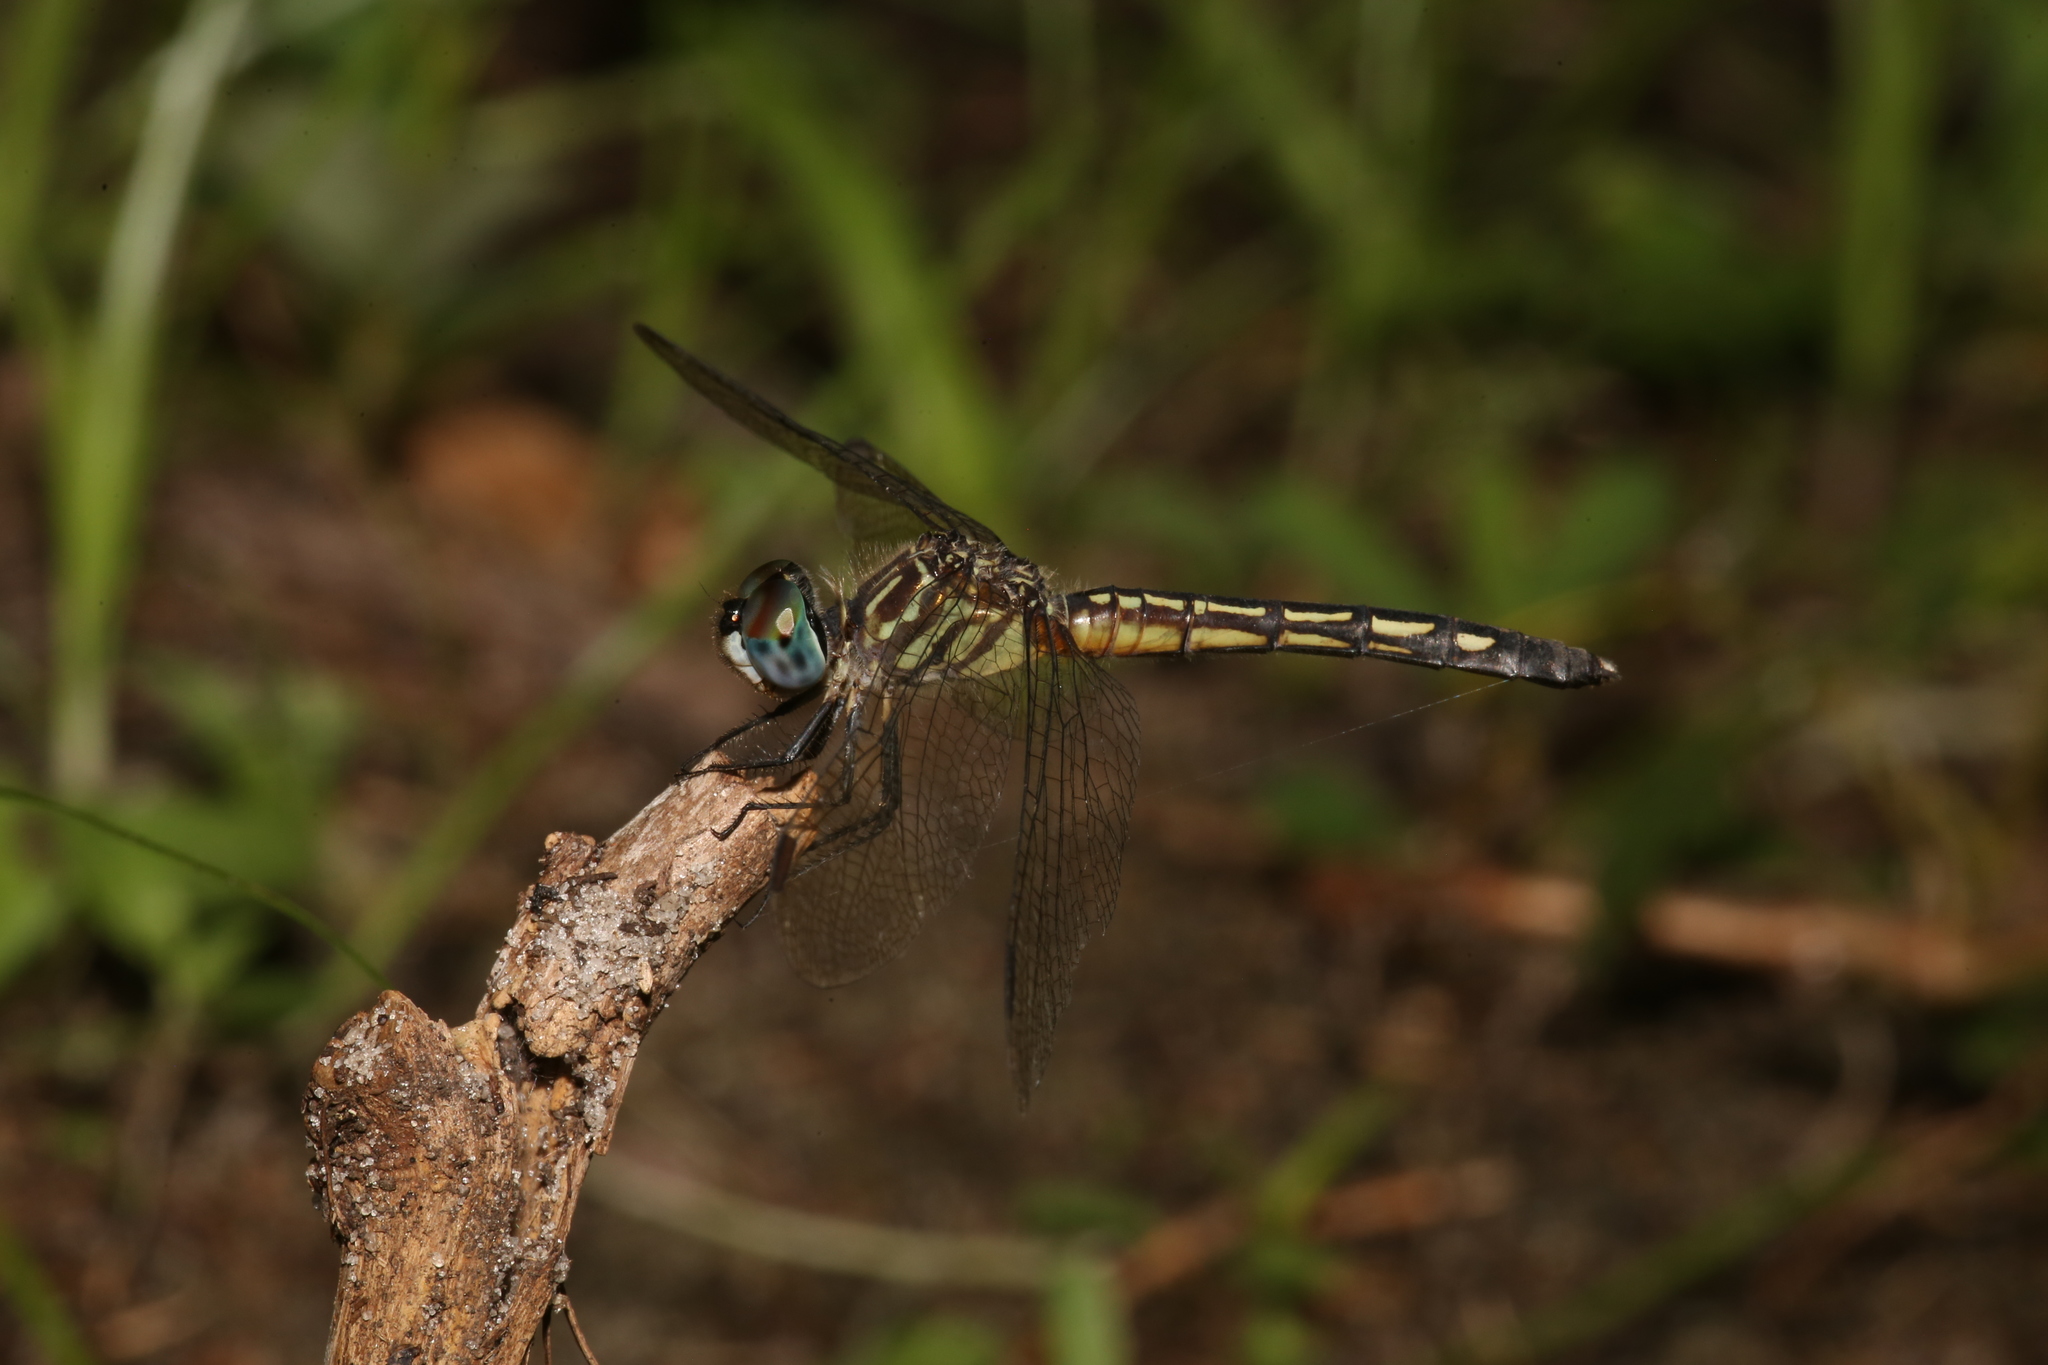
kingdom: Animalia
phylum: Arthropoda
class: Insecta
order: Odonata
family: Libellulidae
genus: Pachydiplax
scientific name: Pachydiplax longipennis
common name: Blue dasher
